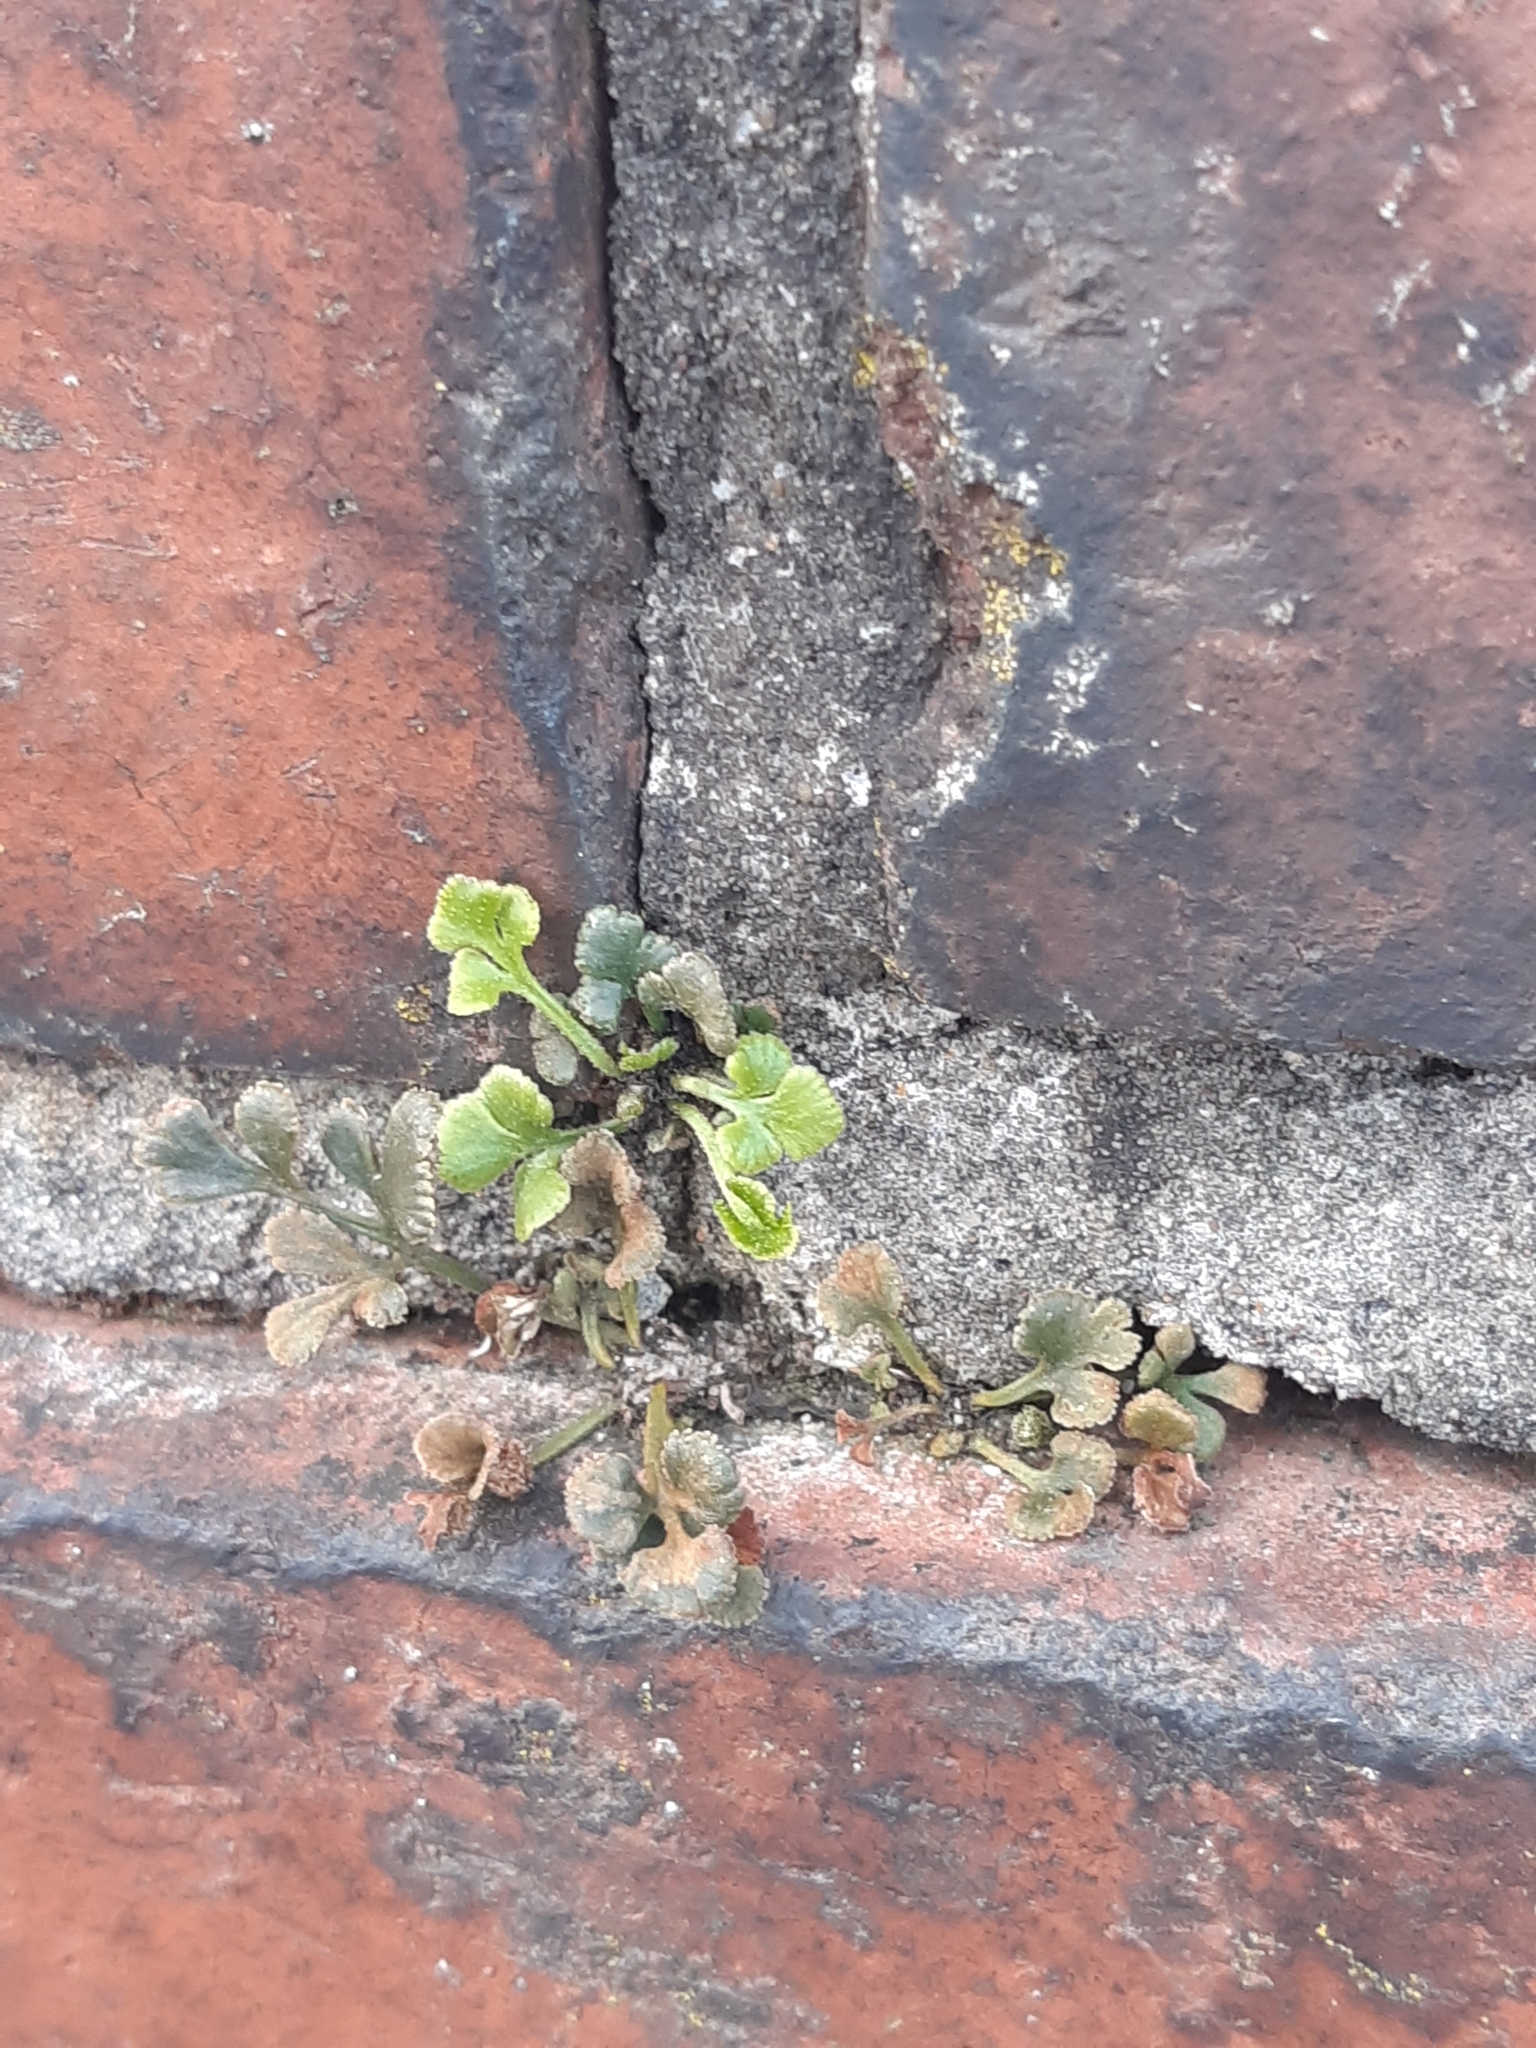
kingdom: Plantae
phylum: Tracheophyta
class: Polypodiopsida
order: Polypodiales
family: Aspleniaceae
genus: Asplenium
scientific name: Asplenium ruta-muraria
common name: Wall-rue
